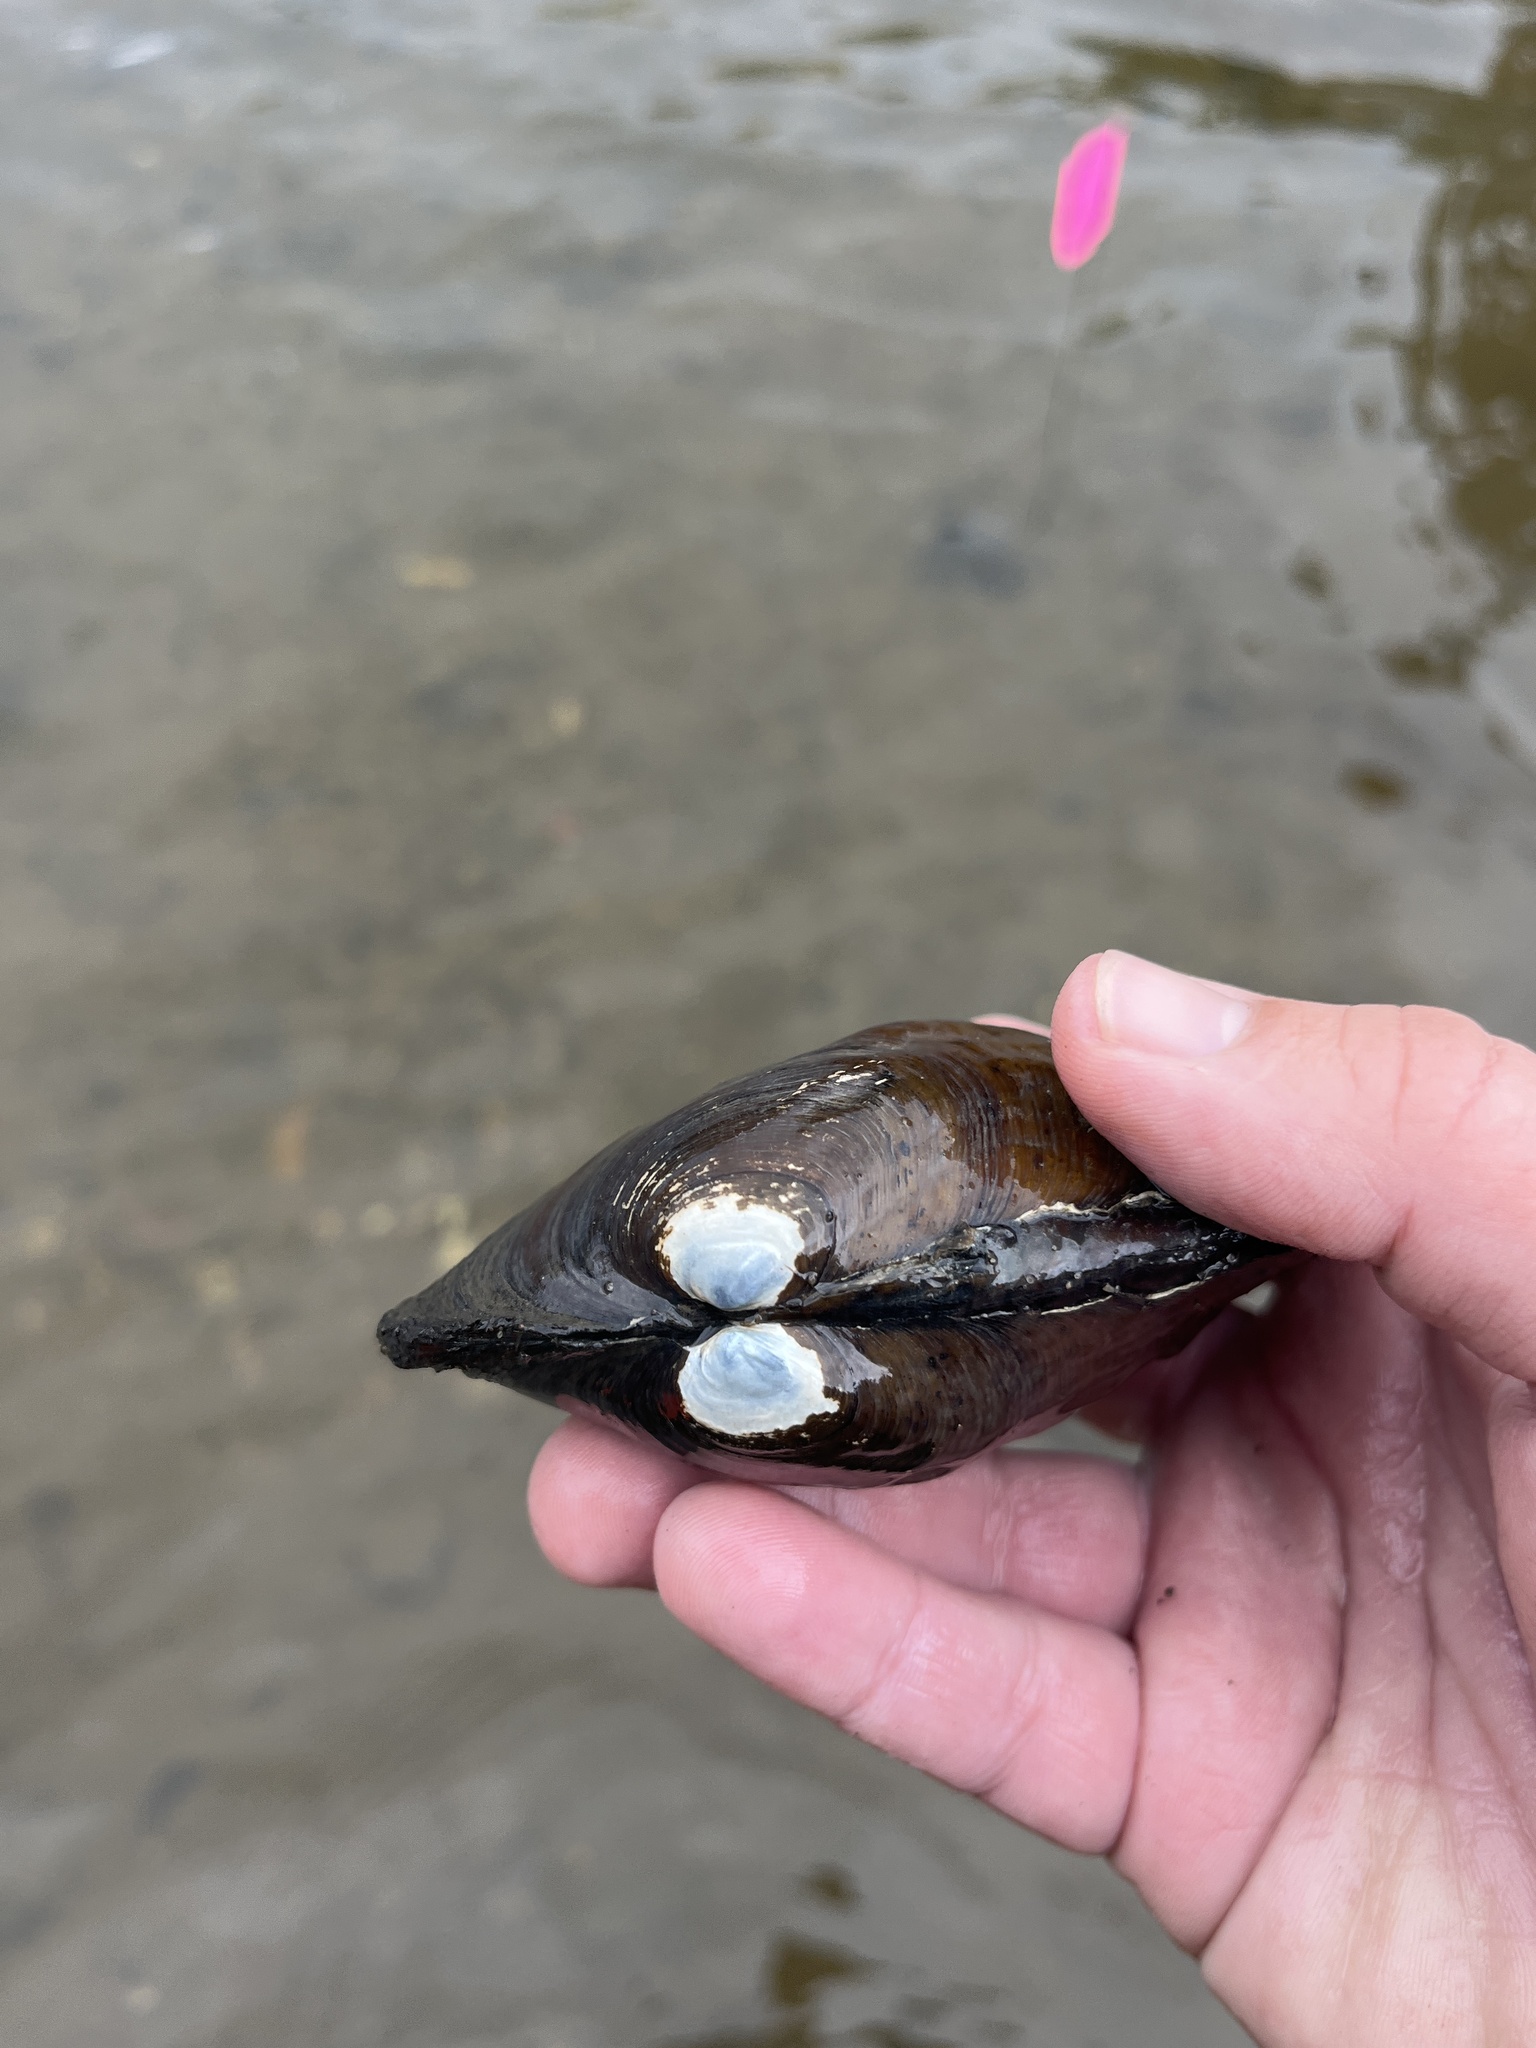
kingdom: Animalia
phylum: Mollusca
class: Bivalvia
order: Unionida
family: Unionidae
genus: Amblema
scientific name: Amblema plicata
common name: Threeridge
